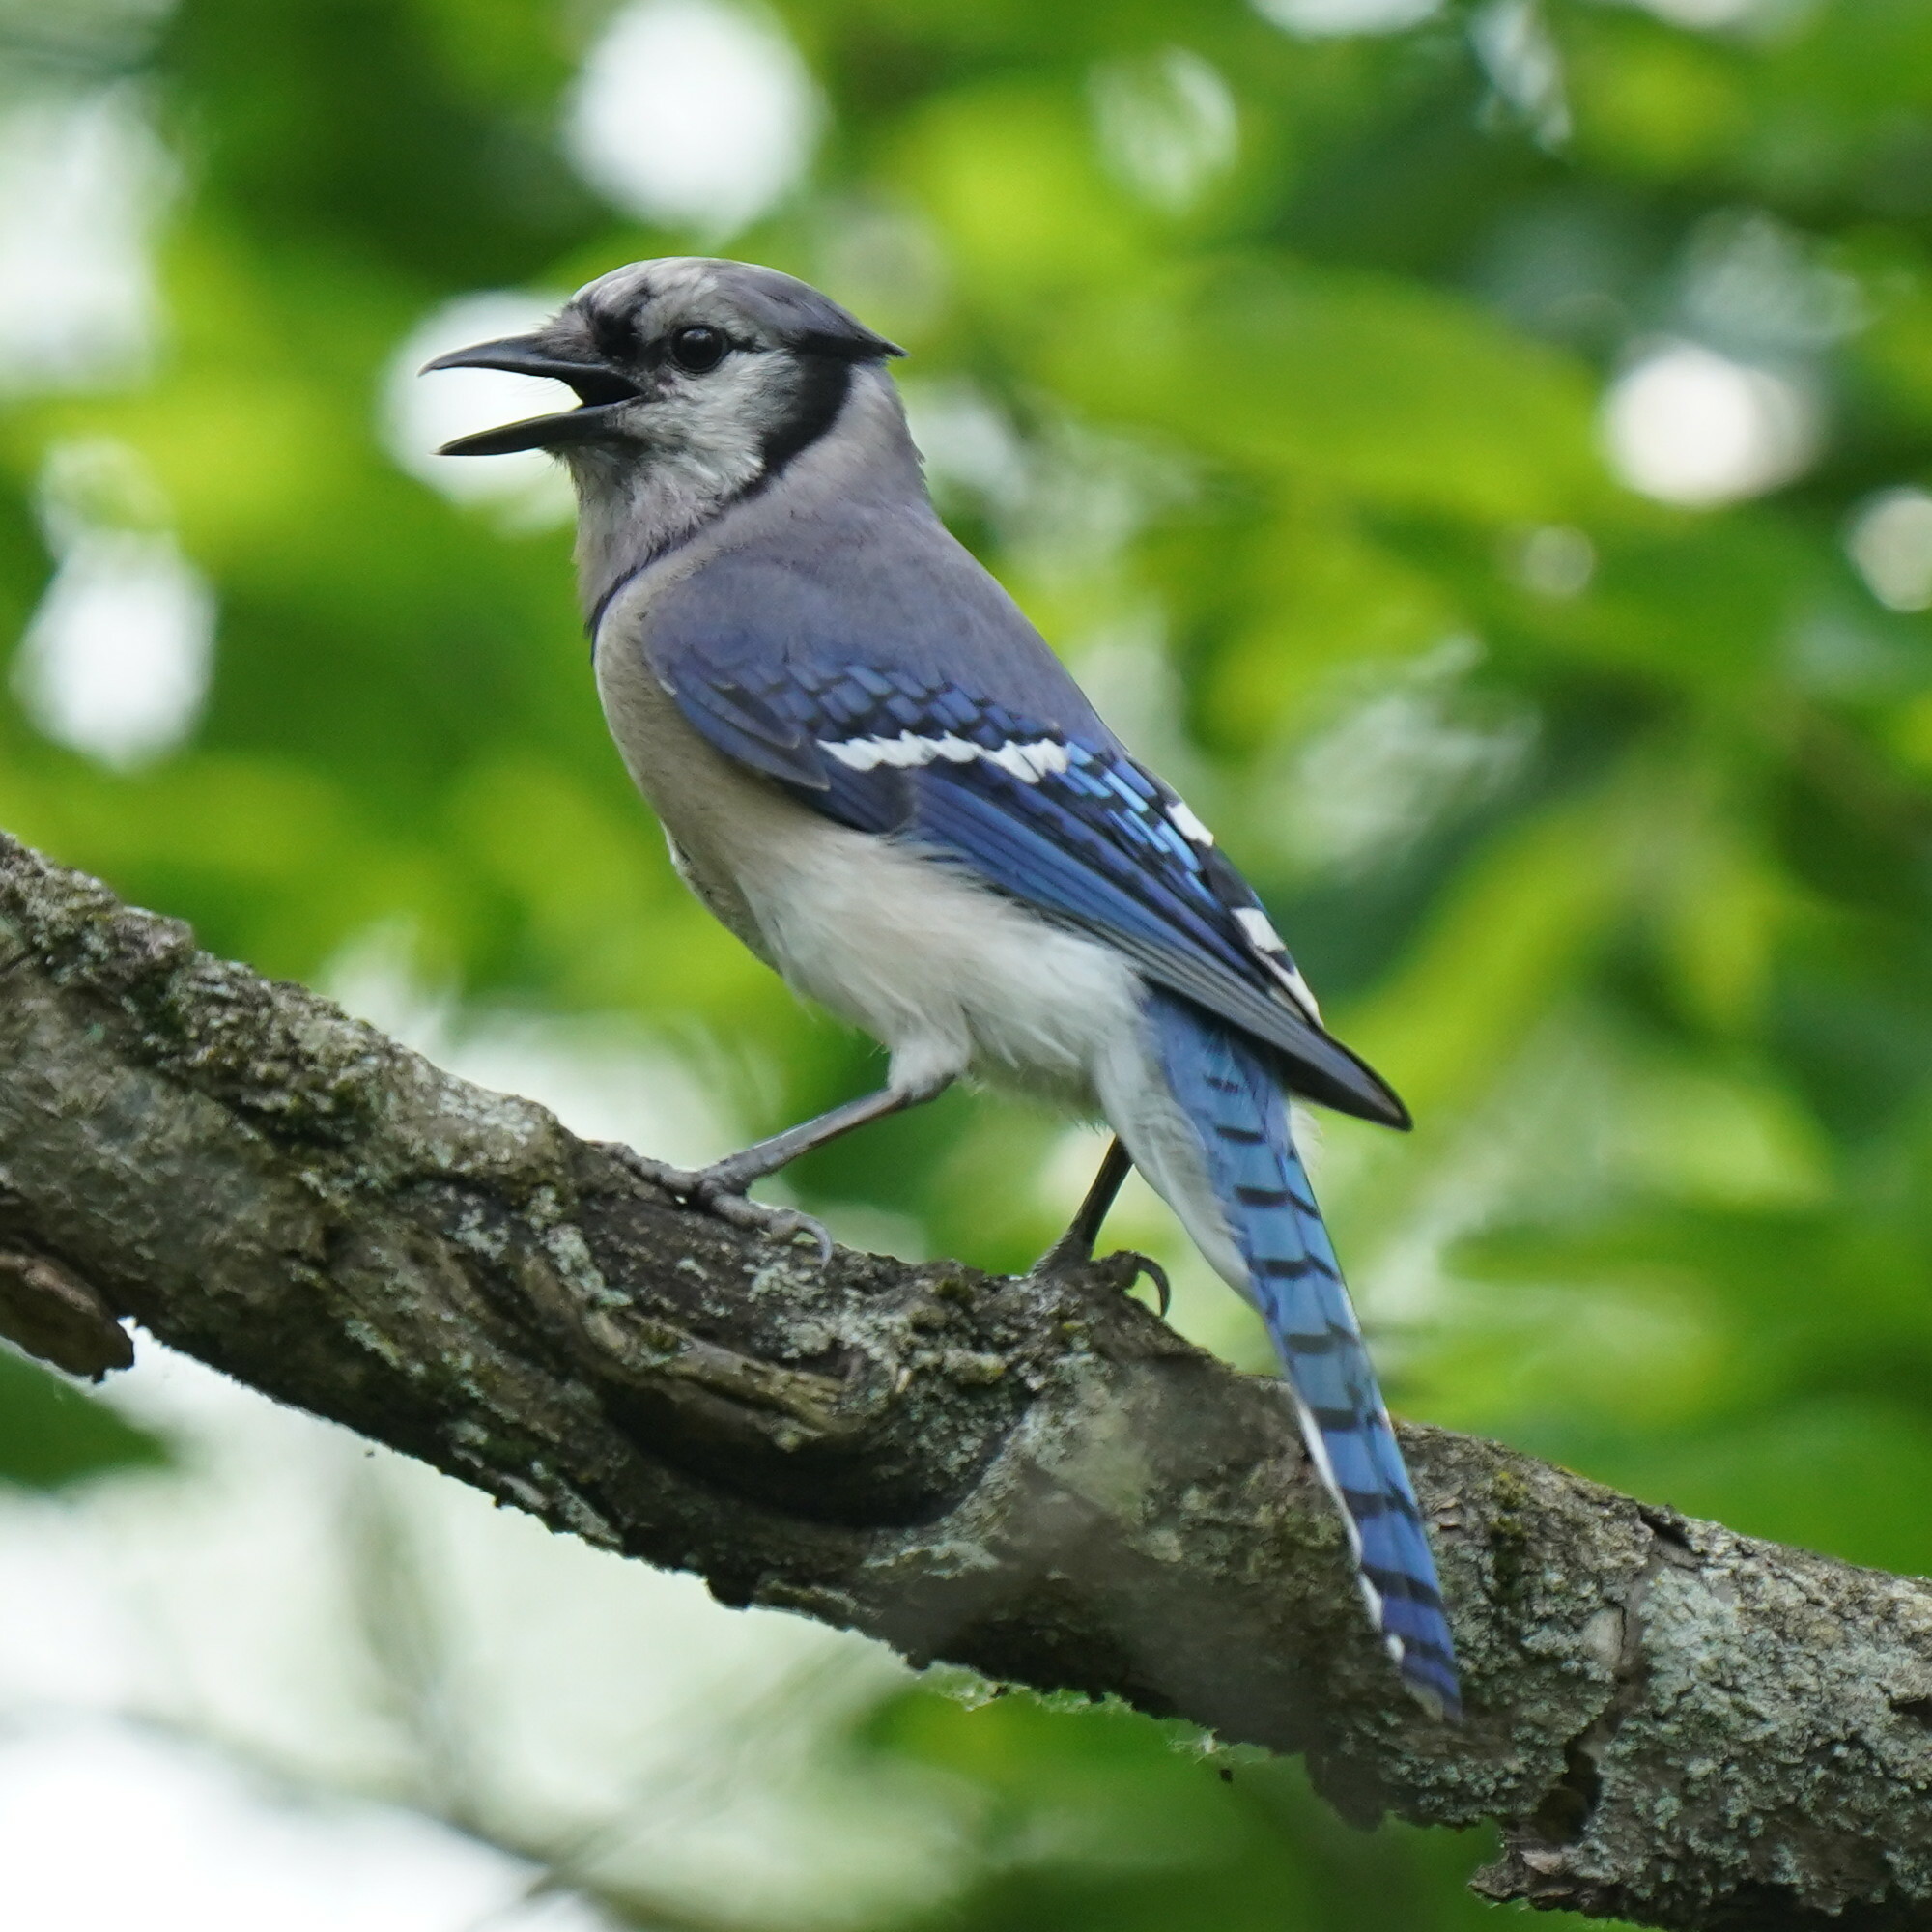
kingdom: Animalia
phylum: Chordata
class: Aves
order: Passeriformes
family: Corvidae
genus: Cyanocitta
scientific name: Cyanocitta cristata
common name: Blue jay
